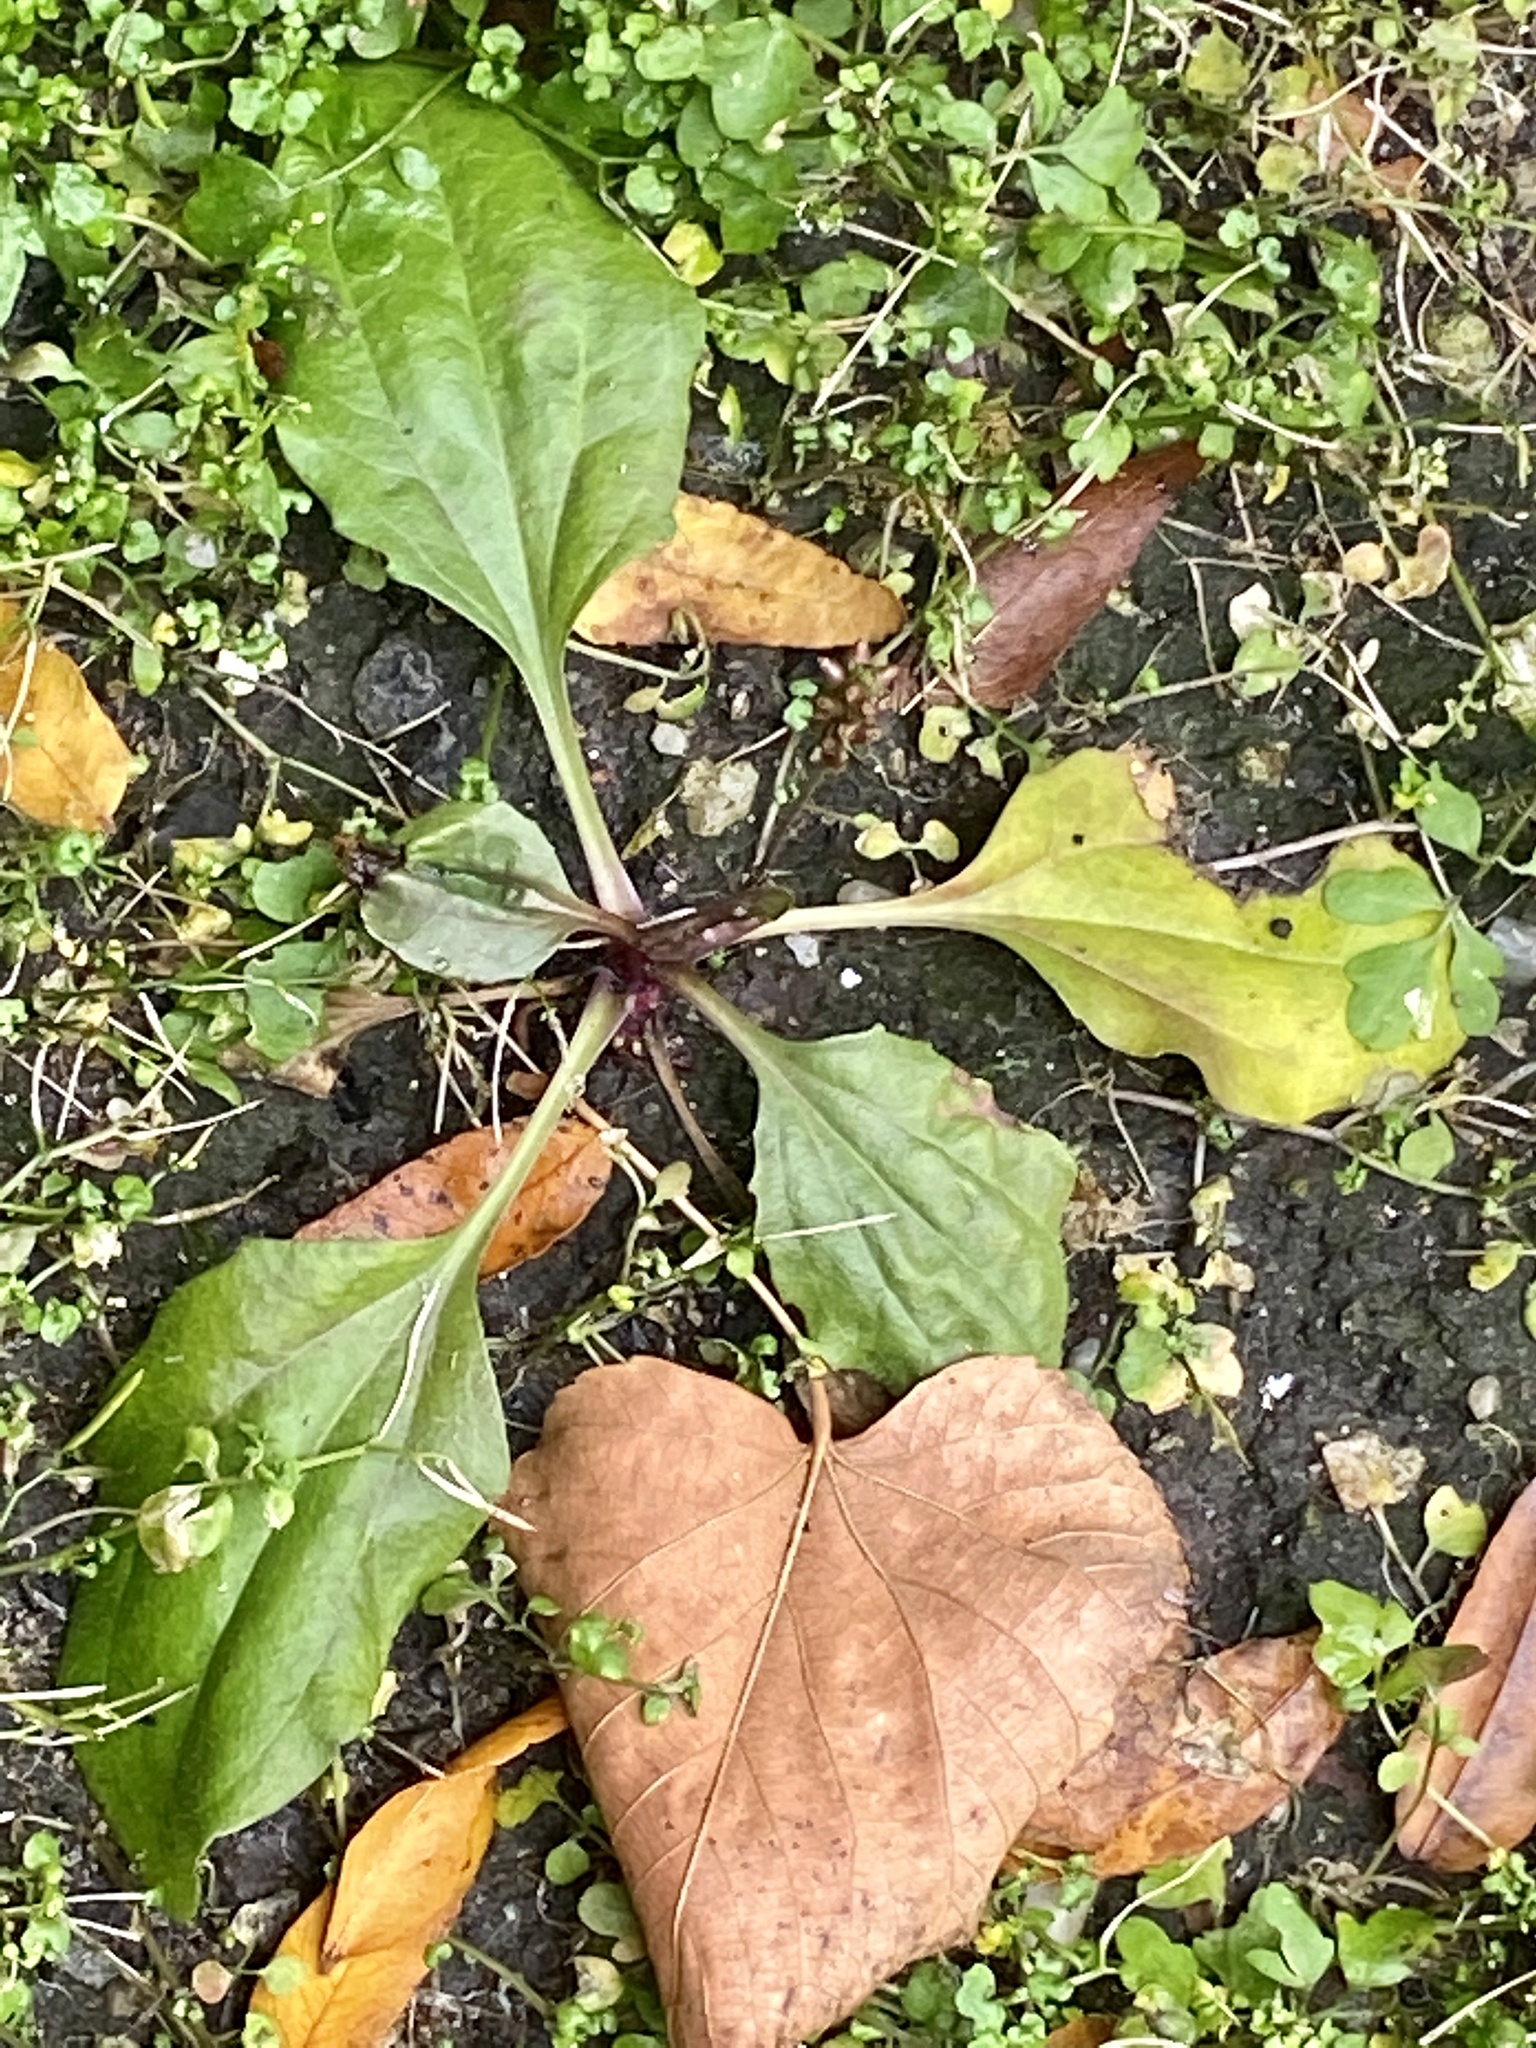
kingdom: Plantae
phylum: Tracheophyta
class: Magnoliopsida
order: Lamiales
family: Plantaginaceae
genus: Plantago
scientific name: Plantago rugelii
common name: American plantain
